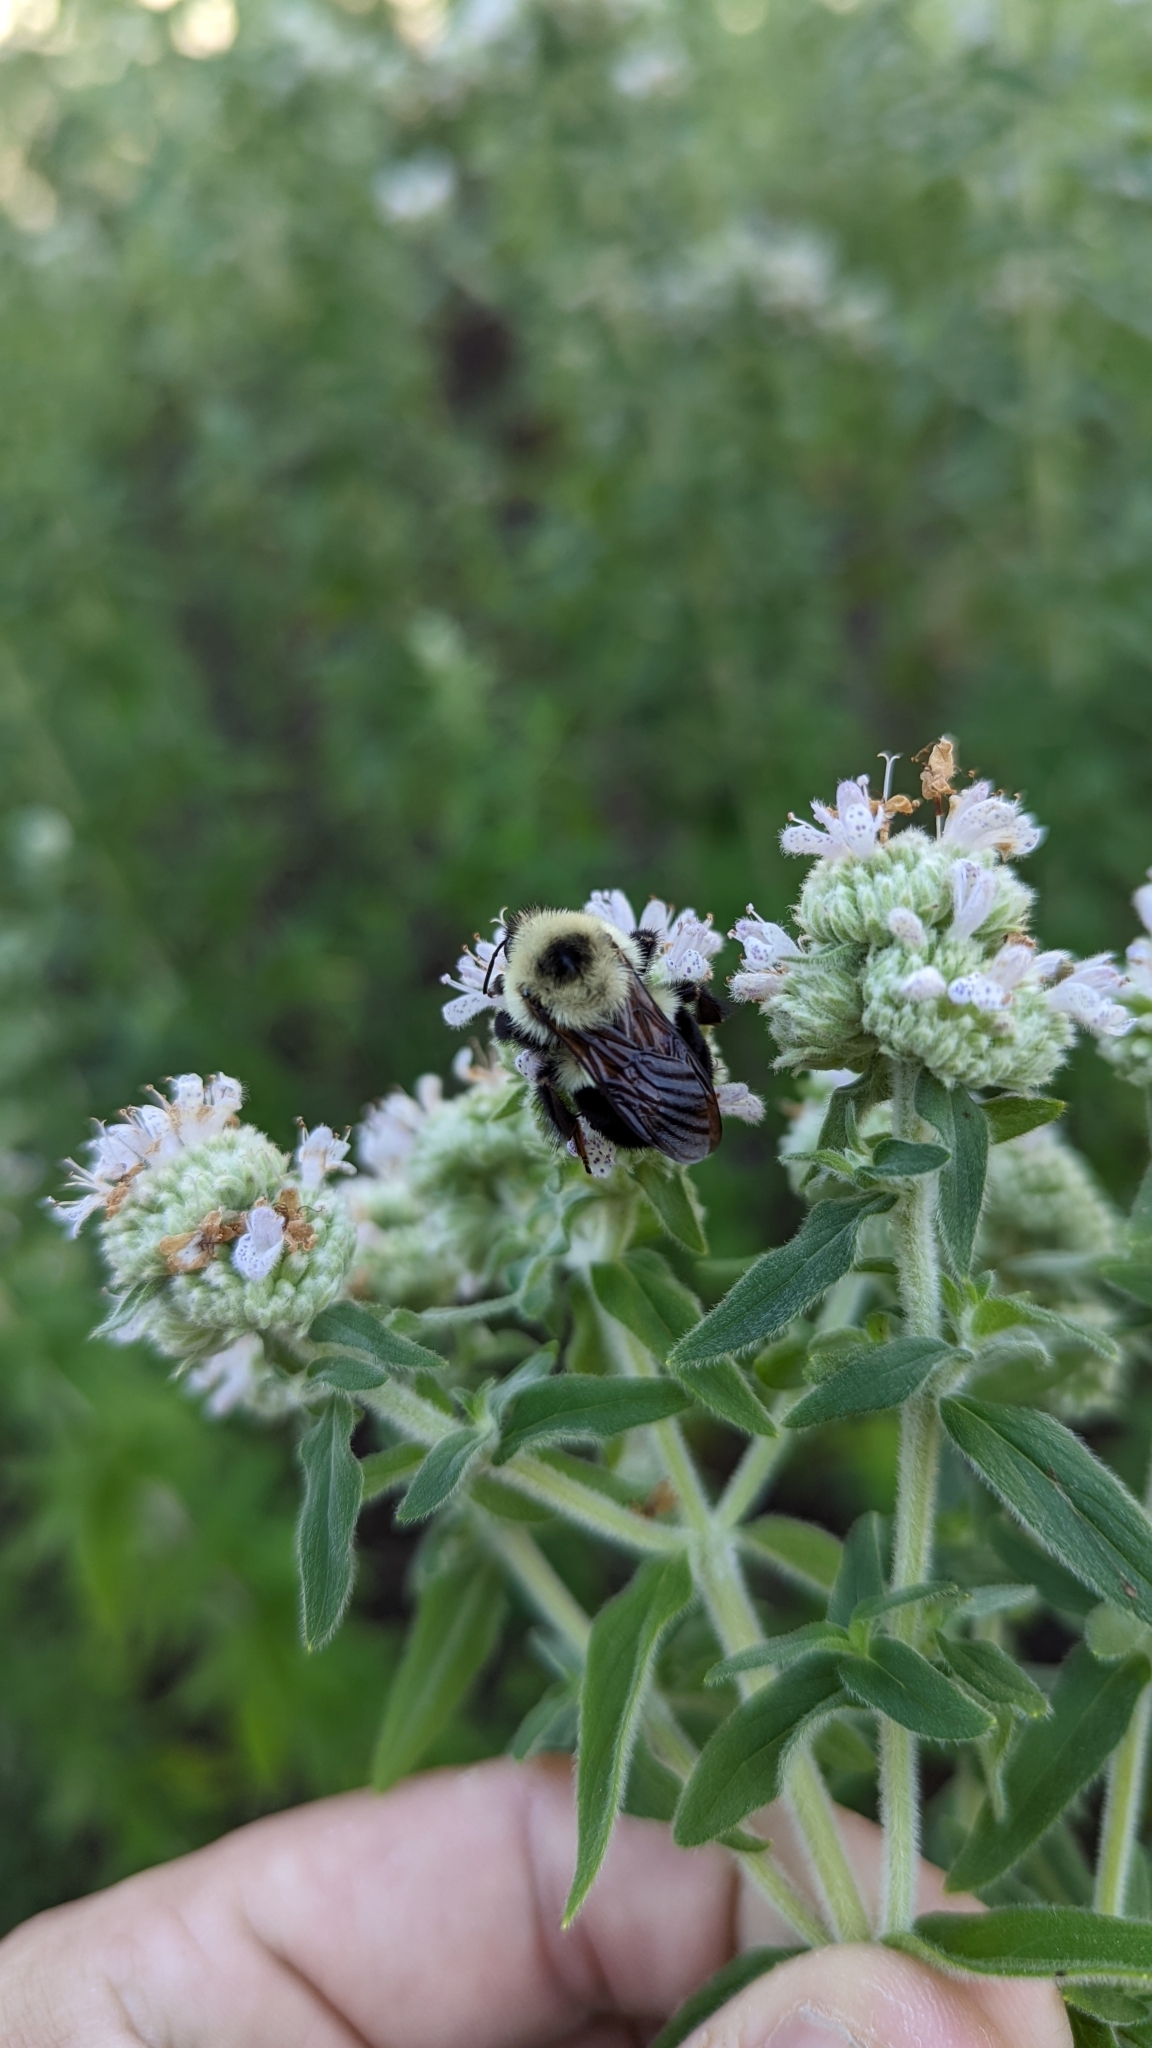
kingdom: Animalia
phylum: Arthropoda
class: Insecta
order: Hymenoptera
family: Apidae
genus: Bombus
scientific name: Bombus bimaculatus
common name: Two-spotted bumble bee
